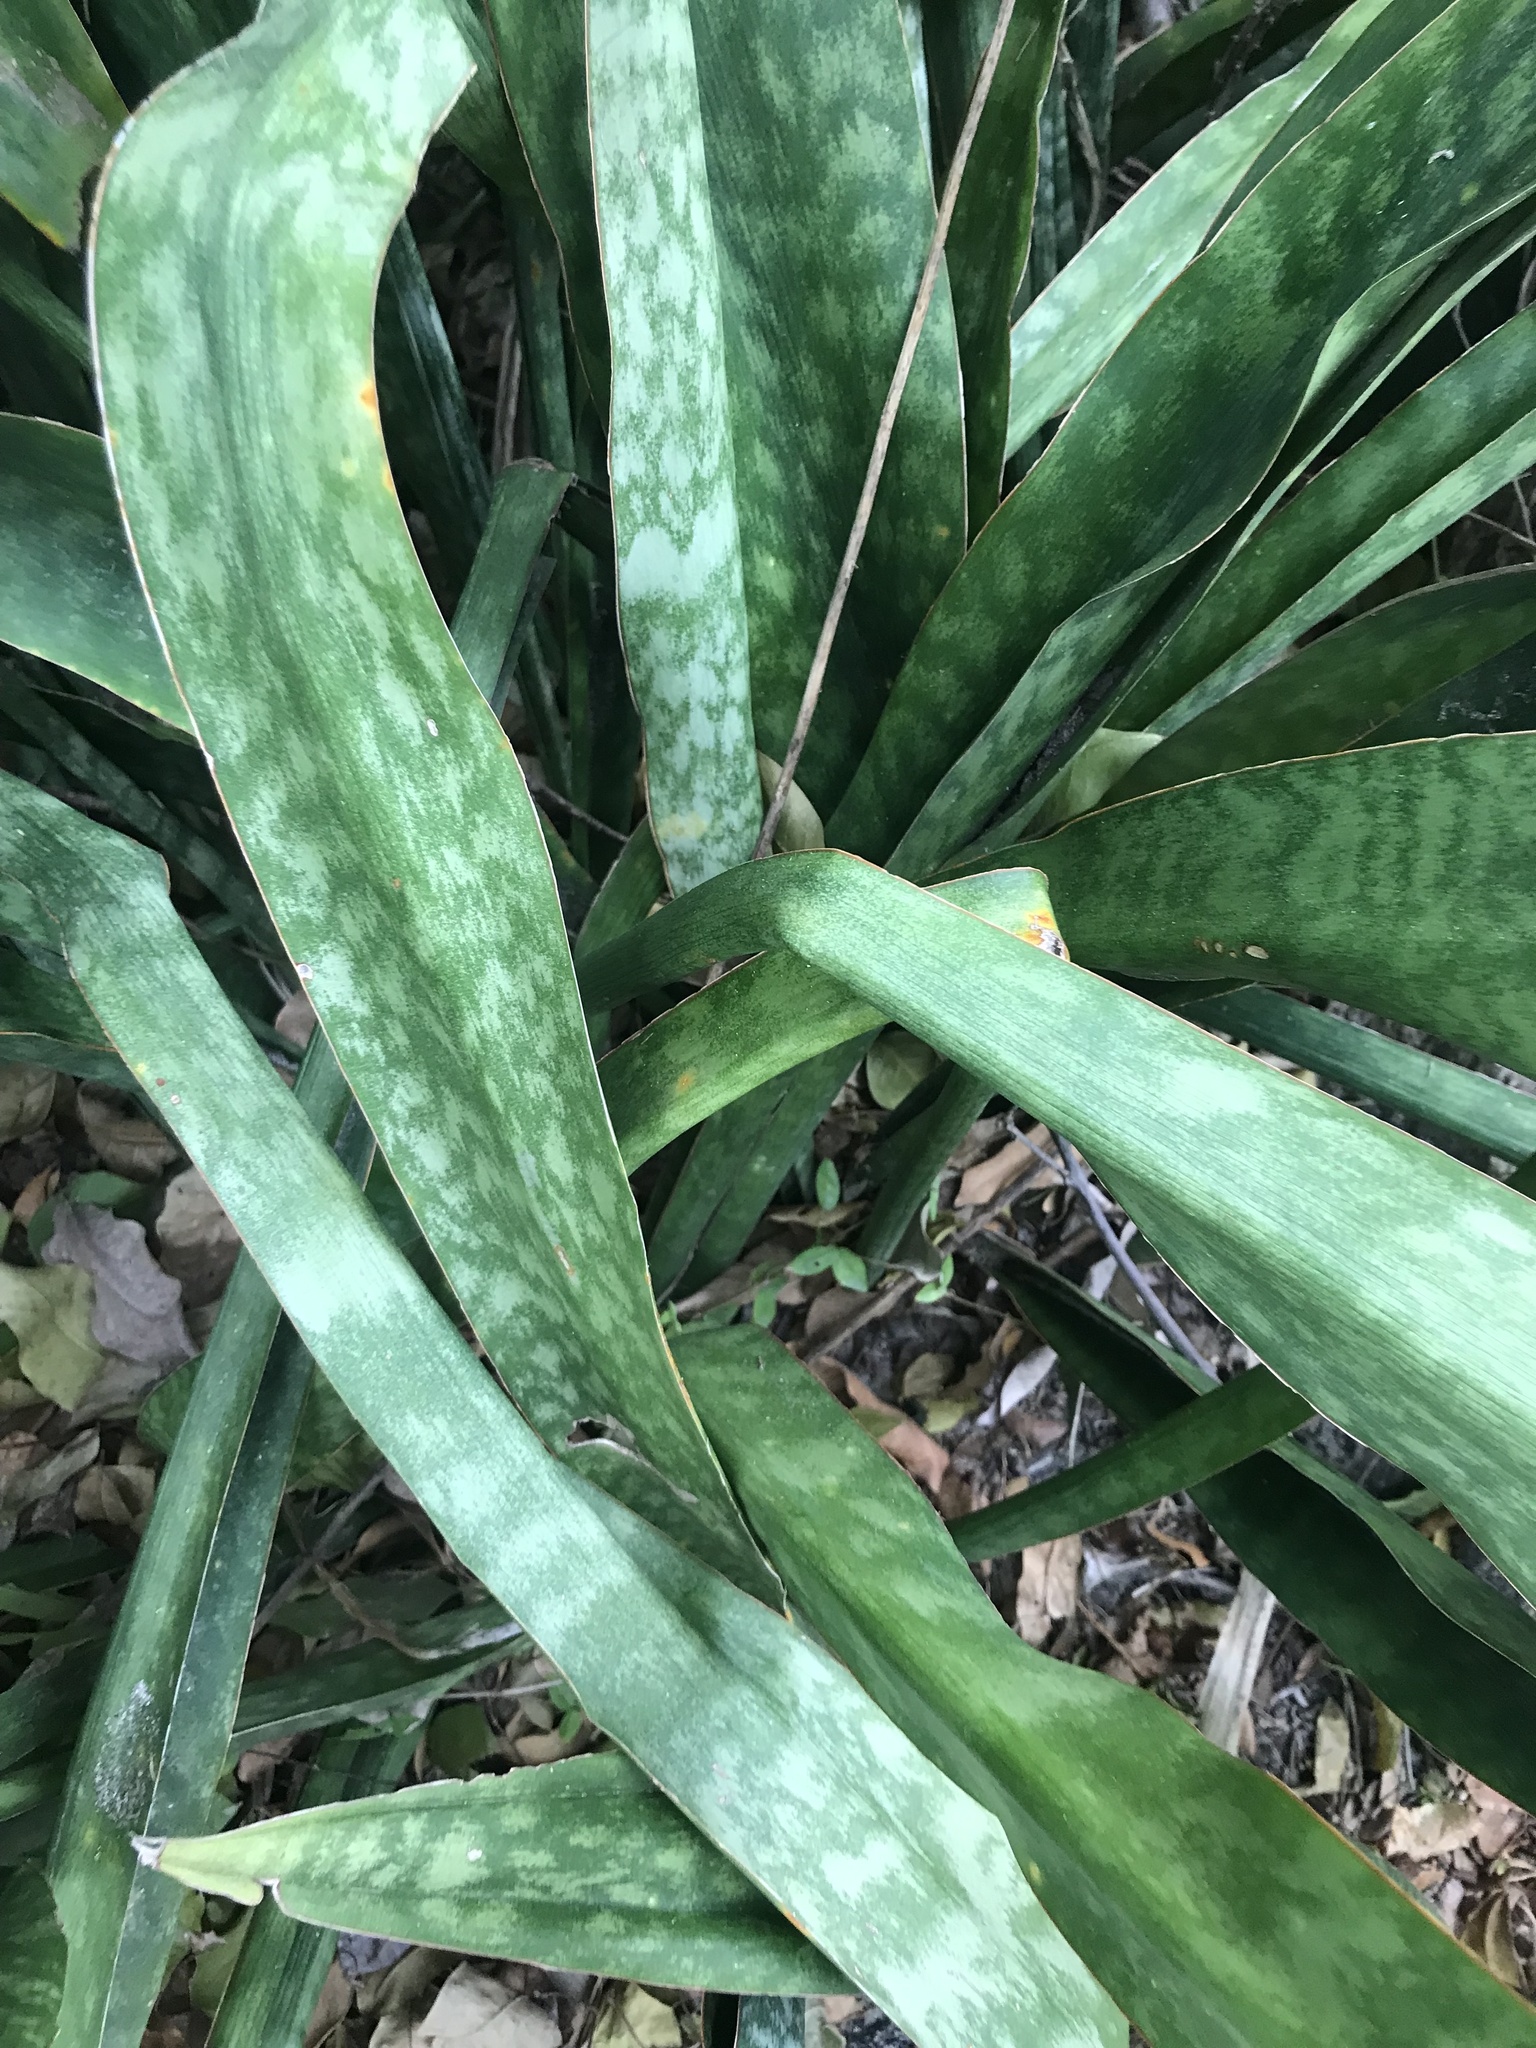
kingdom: Plantae
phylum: Tracheophyta
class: Liliopsida
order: Asparagales
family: Asparagaceae
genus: Dracaena
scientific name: Dracaena hyacinthoides
